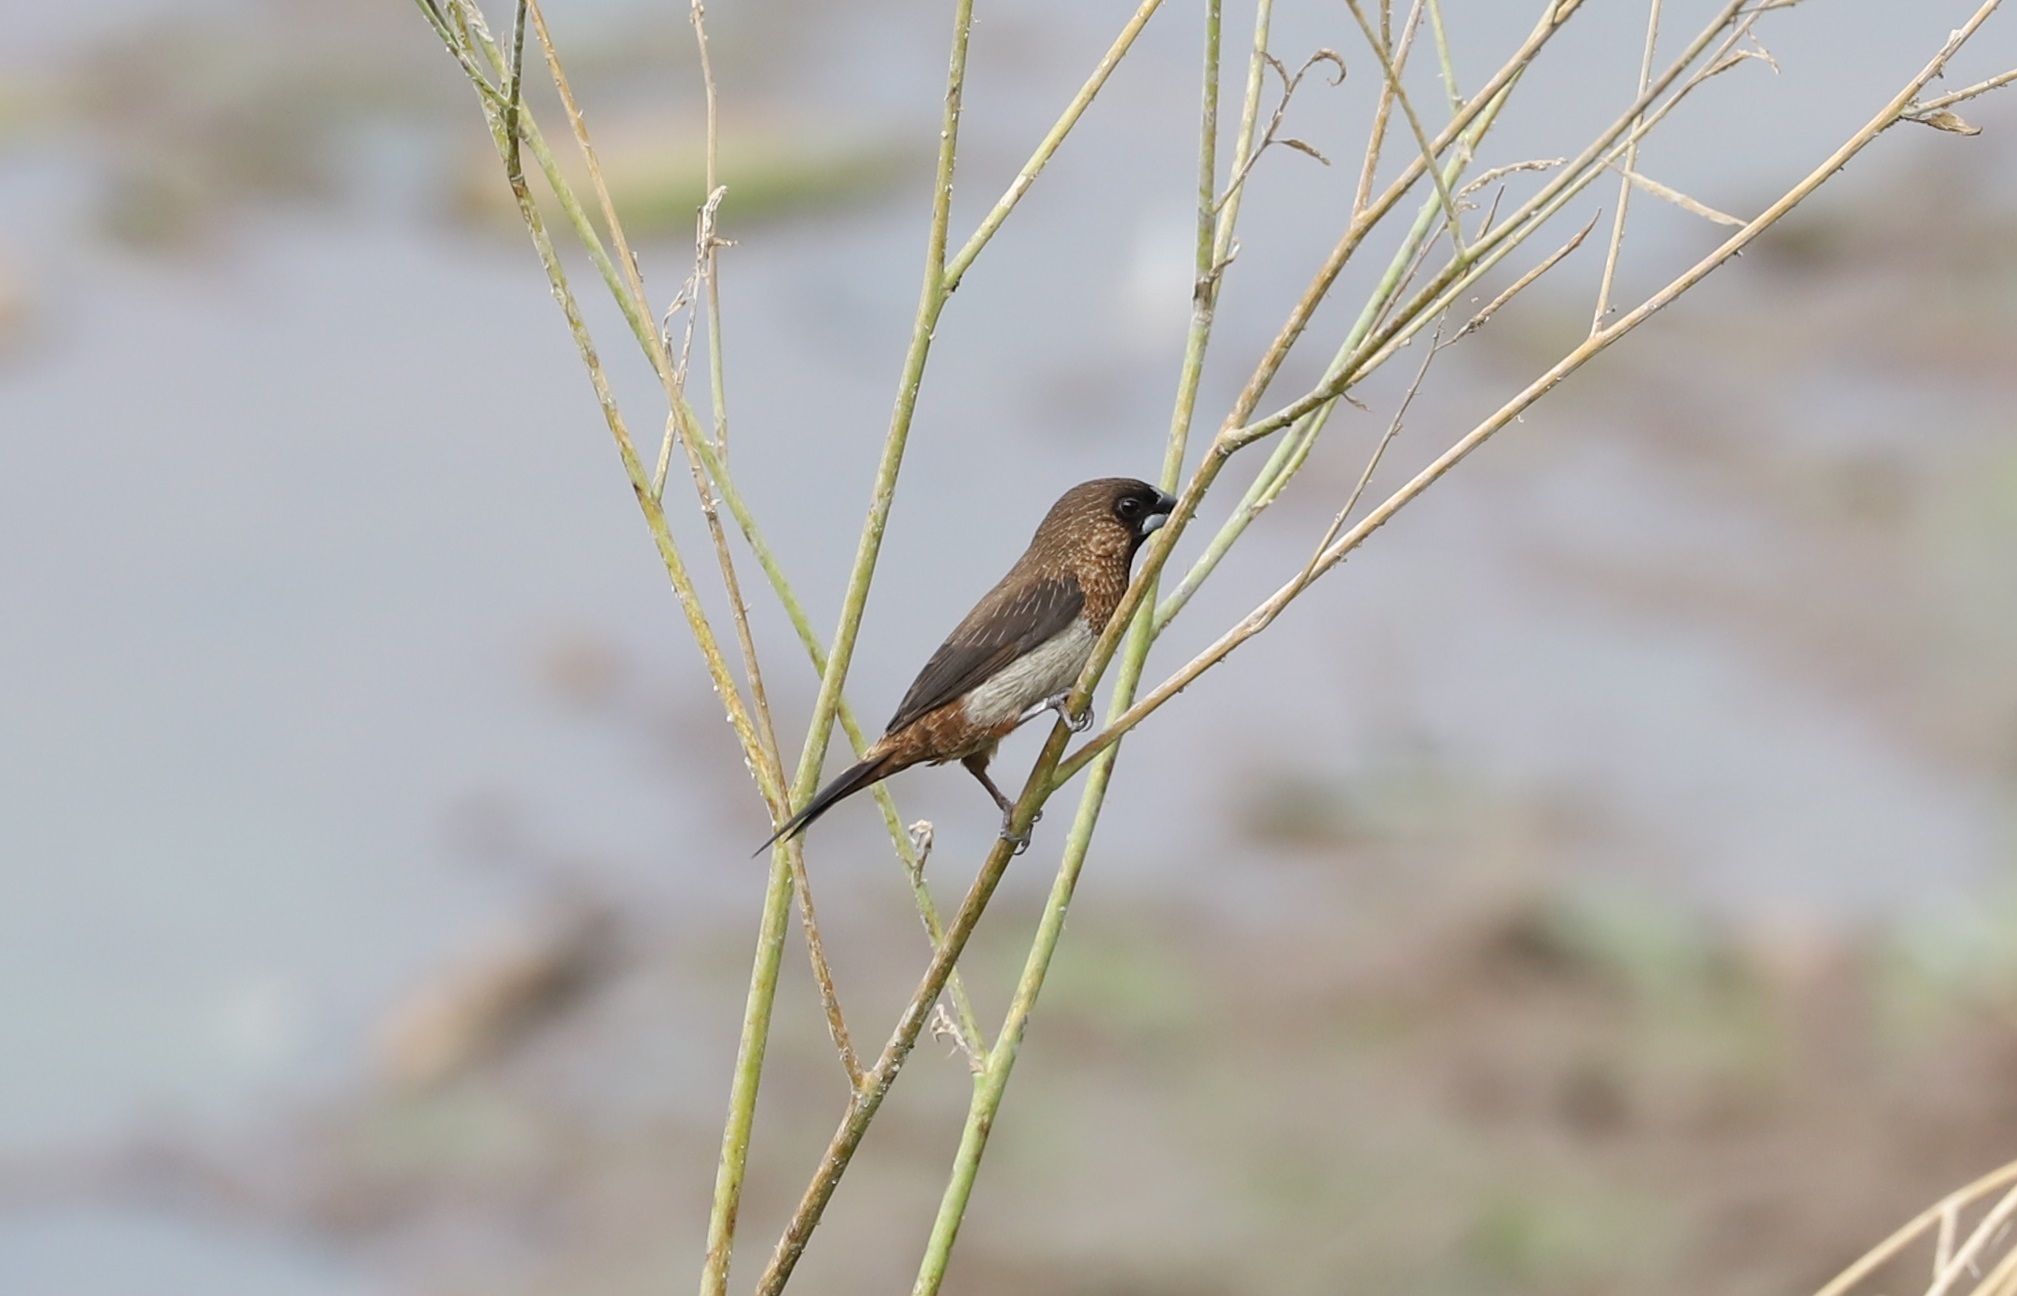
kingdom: Animalia
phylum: Chordata
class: Aves
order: Passeriformes
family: Estrildidae
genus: Lonchura
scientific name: Lonchura striata
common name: White-rumped munia
